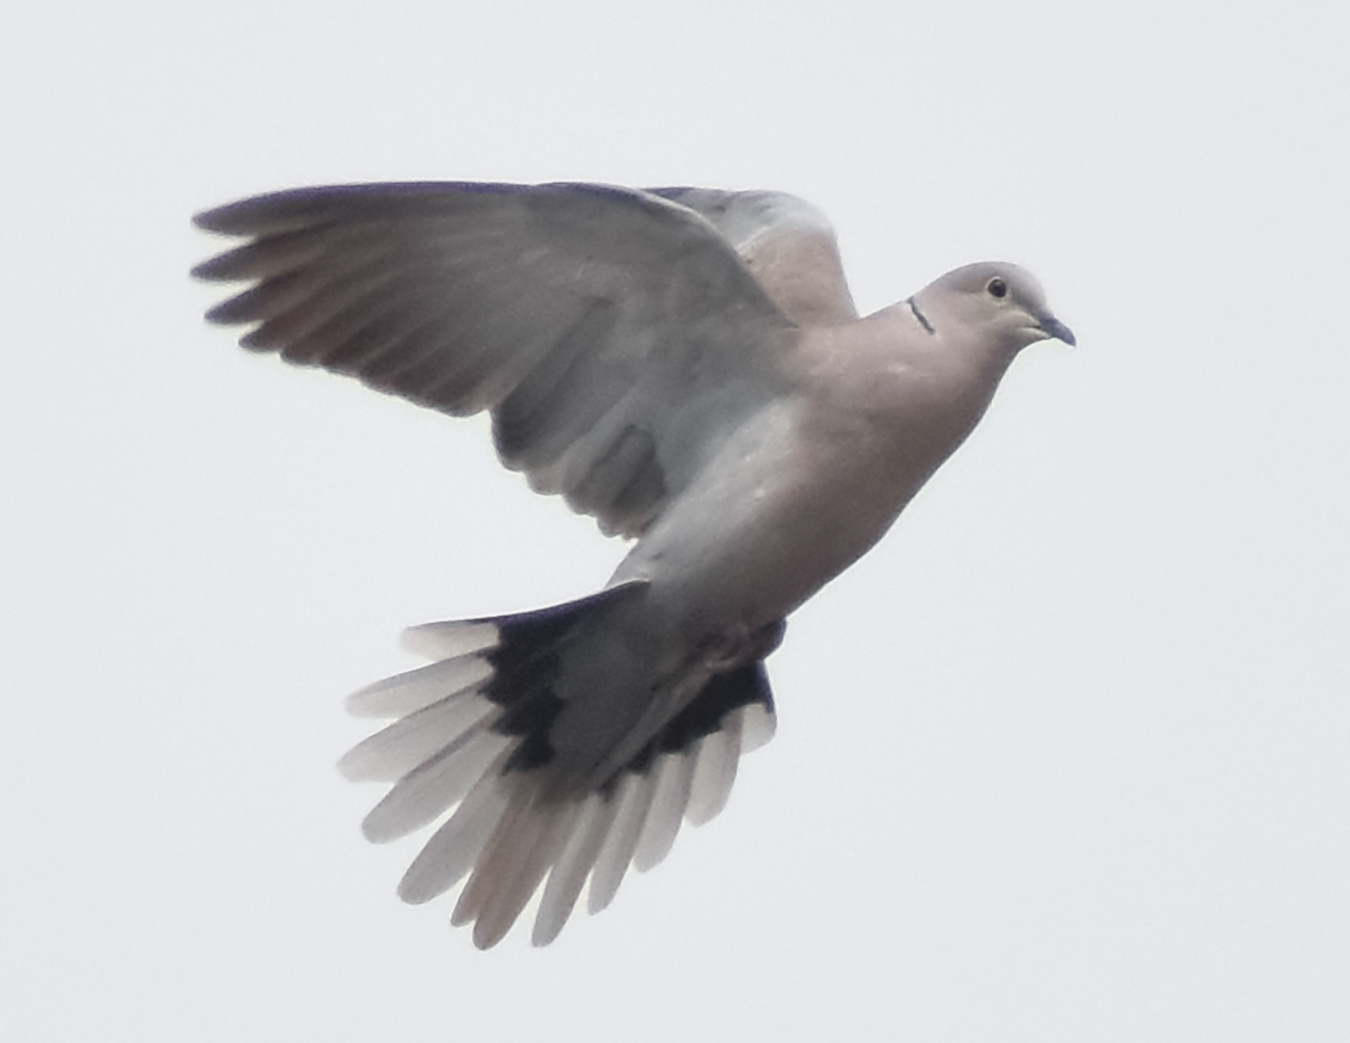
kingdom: Animalia
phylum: Chordata
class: Aves
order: Columbiformes
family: Columbidae
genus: Streptopelia
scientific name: Streptopelia decaocto
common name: Eurasian collared dove
